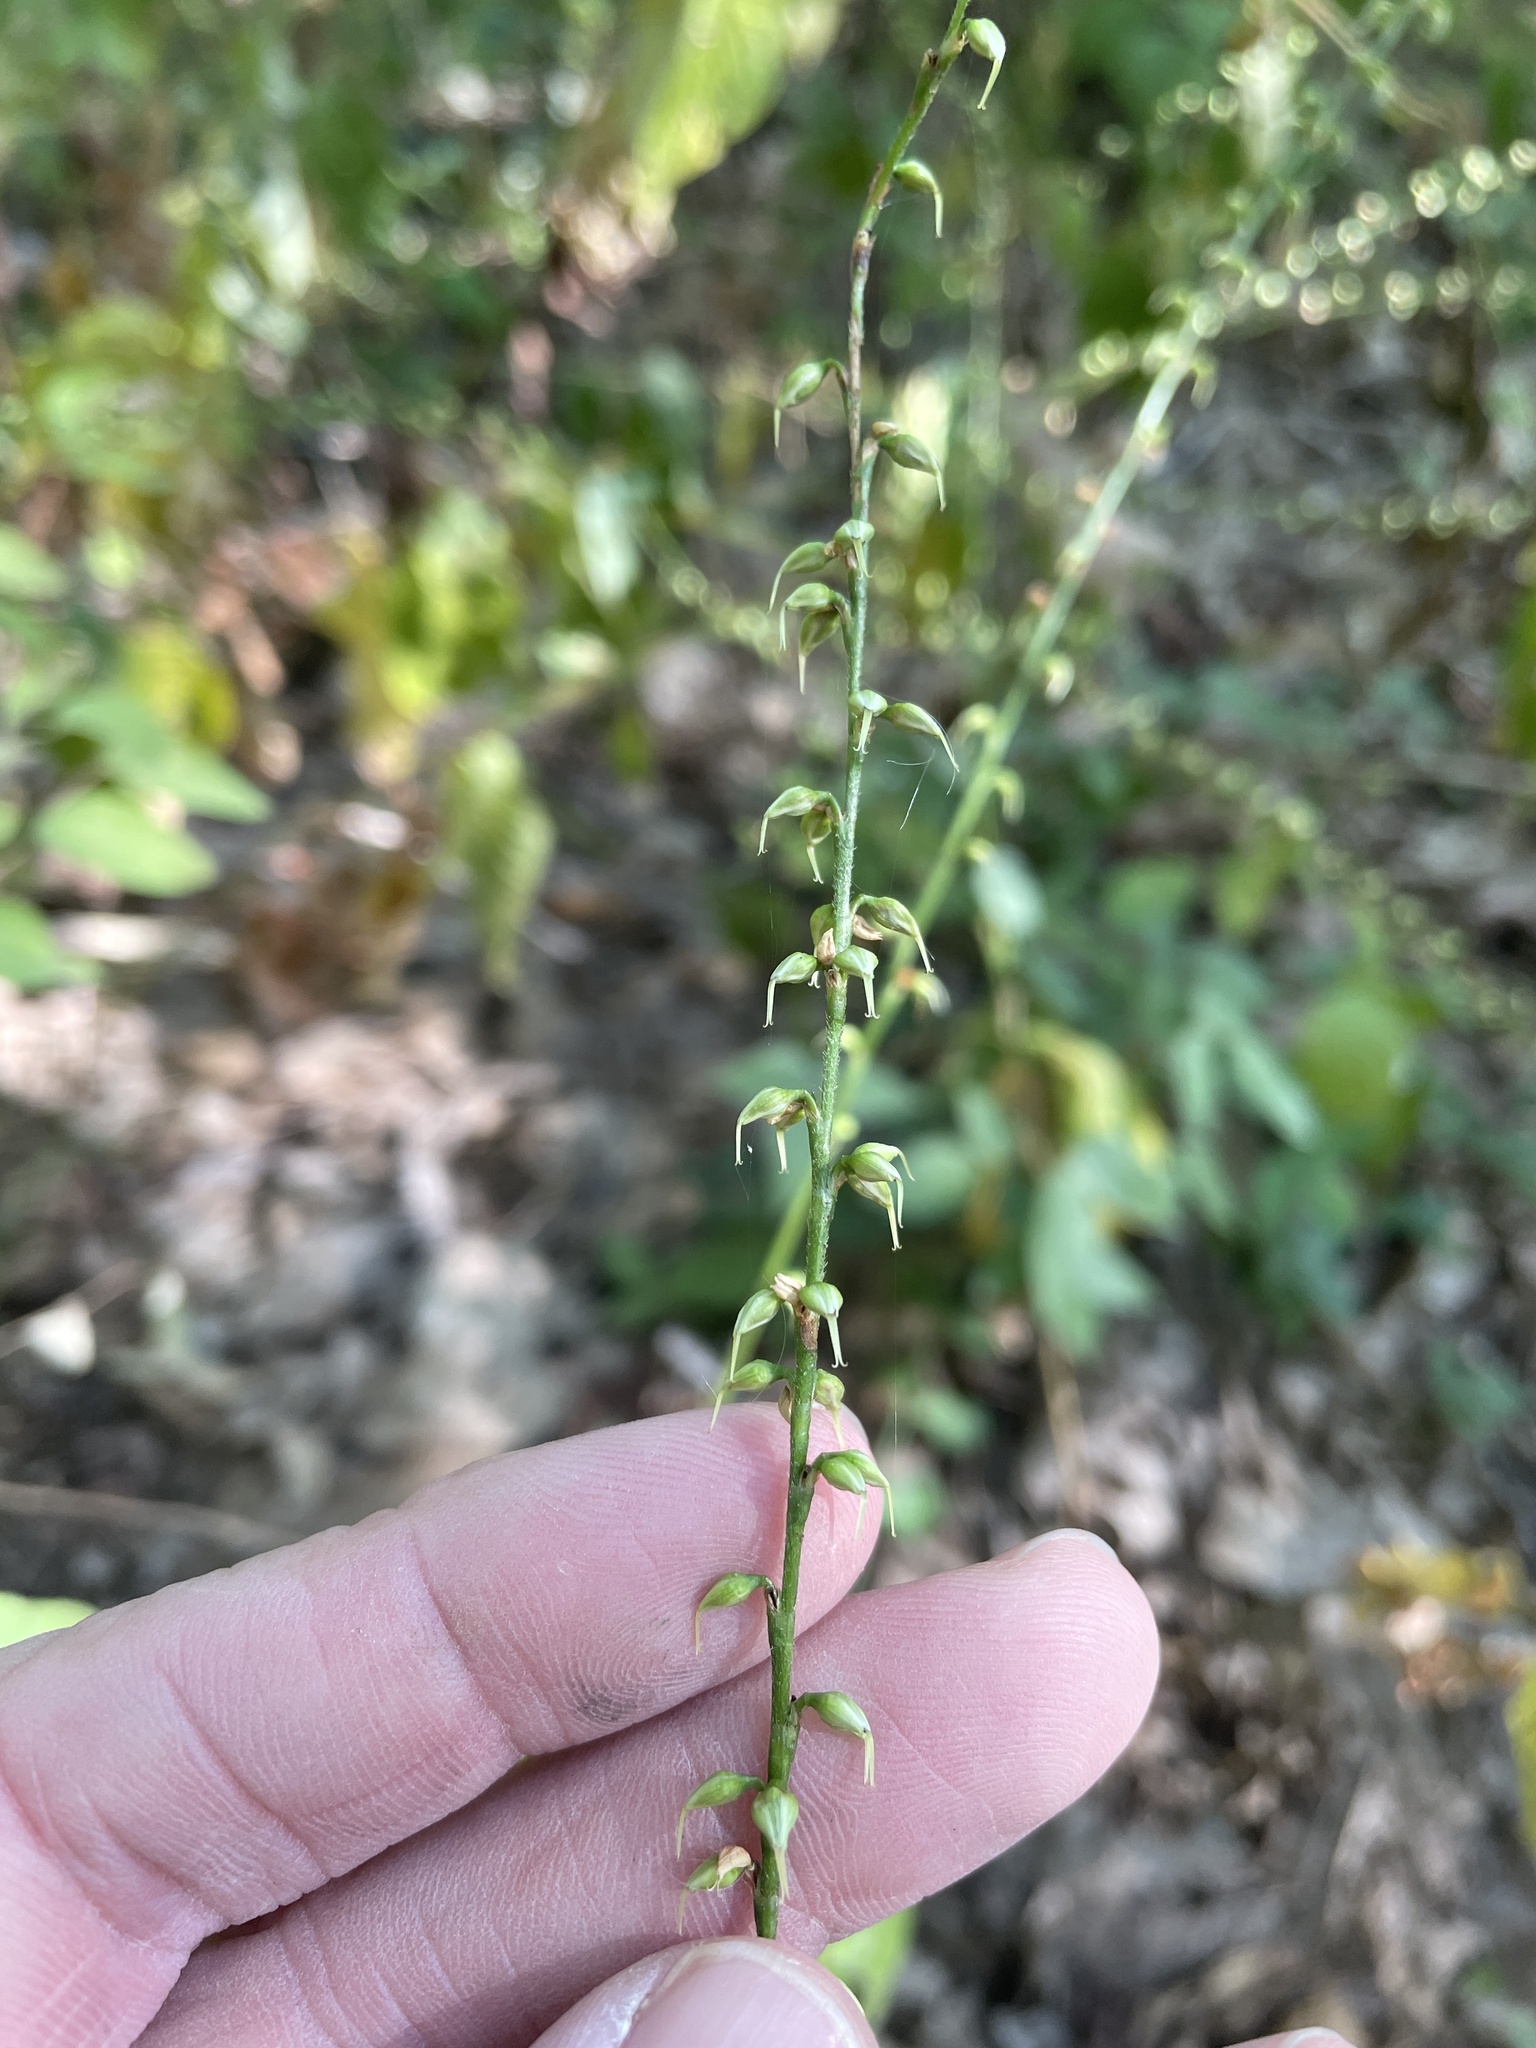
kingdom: Plantae
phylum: Tracheophyta
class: Magnoliopsida
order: Caryophyllales
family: Polygonaceae
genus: Persicaria
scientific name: Persicaria virginiana
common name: Jumpseed
